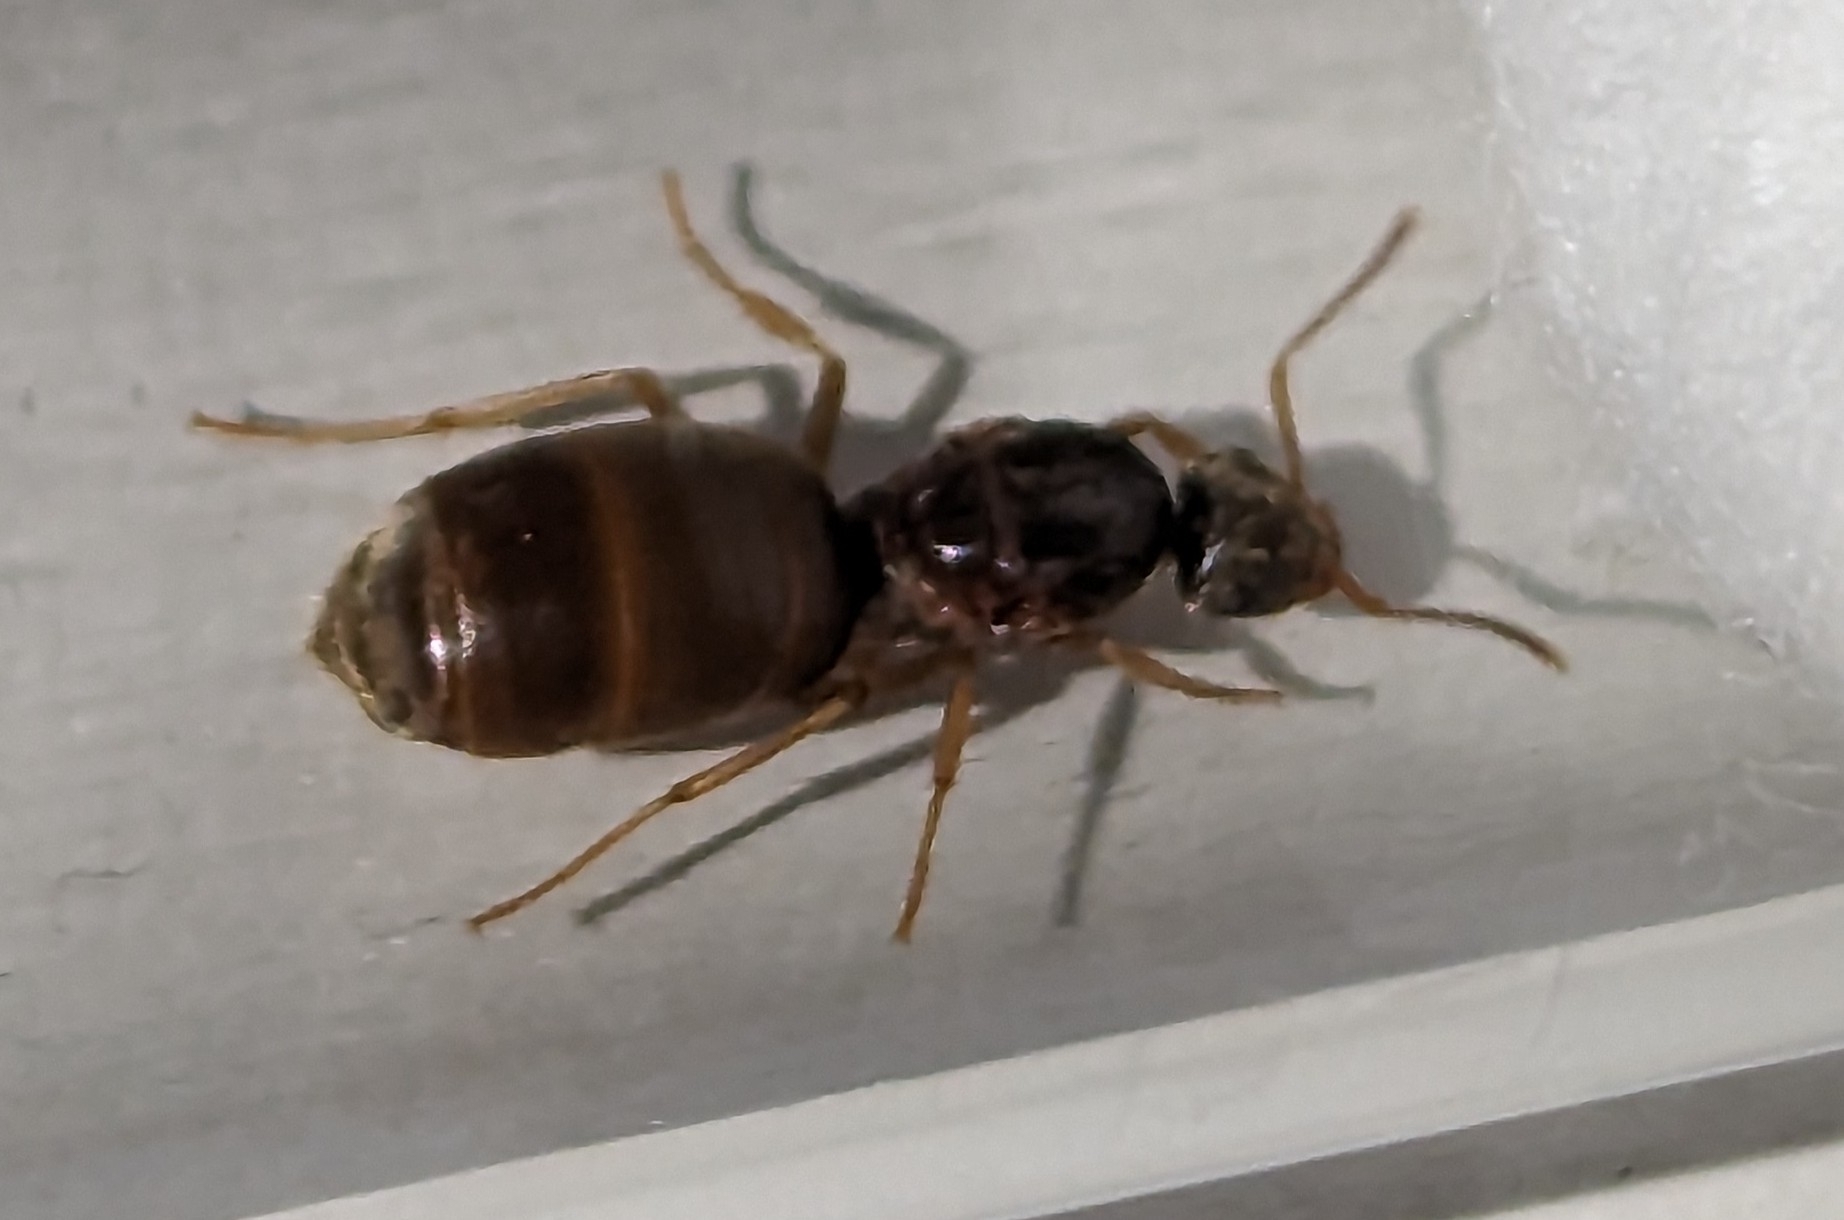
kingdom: Animalia
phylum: Arthropoda
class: Insecta
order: Hymenoptera
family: Formicidae
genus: Lasius
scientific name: Lasius neoniger
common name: Turfgrass ant
